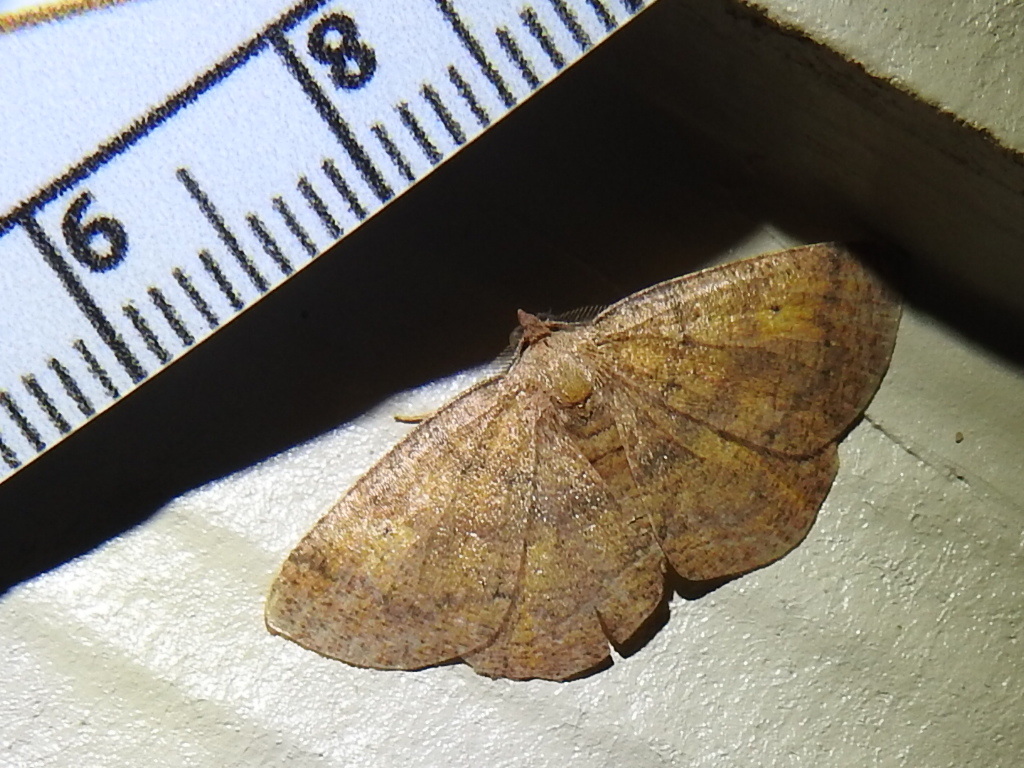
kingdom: Animalia
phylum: Arthropoda
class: Insecta
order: Lepidoptera
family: Geometridae
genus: Ilexia
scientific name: Ilexia intractata
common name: Black-dotted ruddy moth
